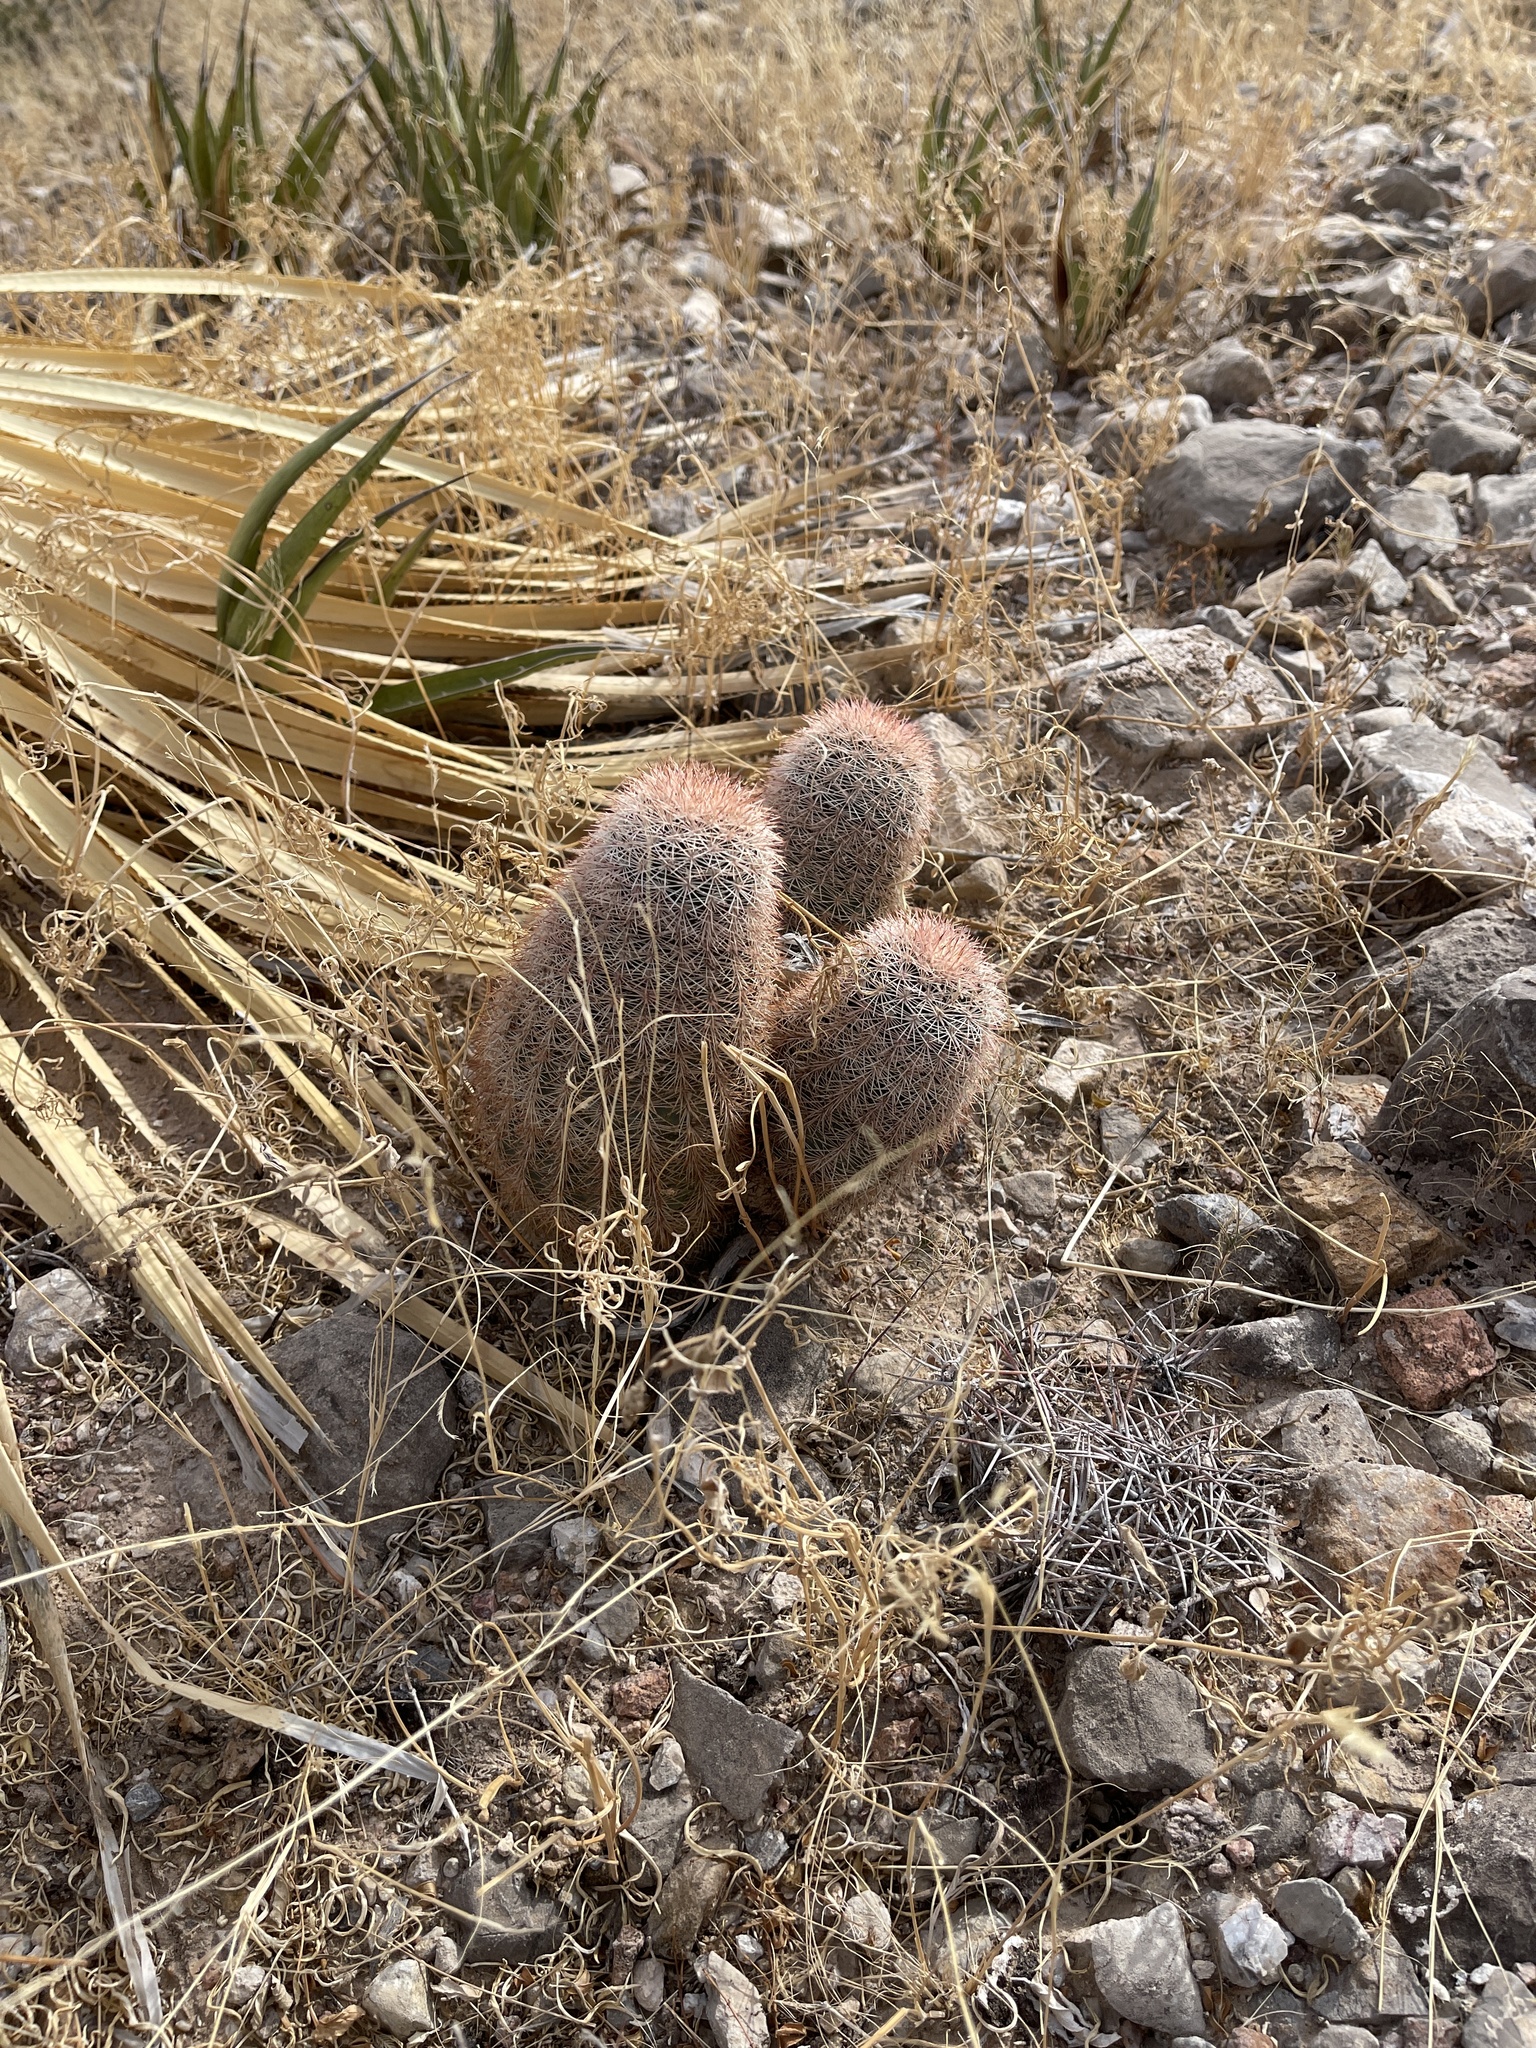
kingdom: Plantae
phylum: Tracheophyta
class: Magnoliopsida
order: Caryophyllales
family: Cactaceae
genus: Echinocereus
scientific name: Echinocereus dasyacanthus
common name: Spiny hedgehog cactus
